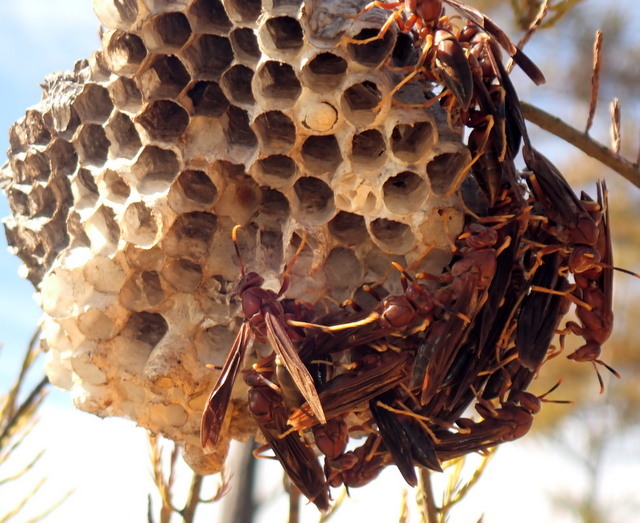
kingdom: Animalia
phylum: Arthropoda
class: Insecta
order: Hymenoptera
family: Eumenidae
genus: Polistes
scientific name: Polistes annularis
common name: Ringed paper wasp
